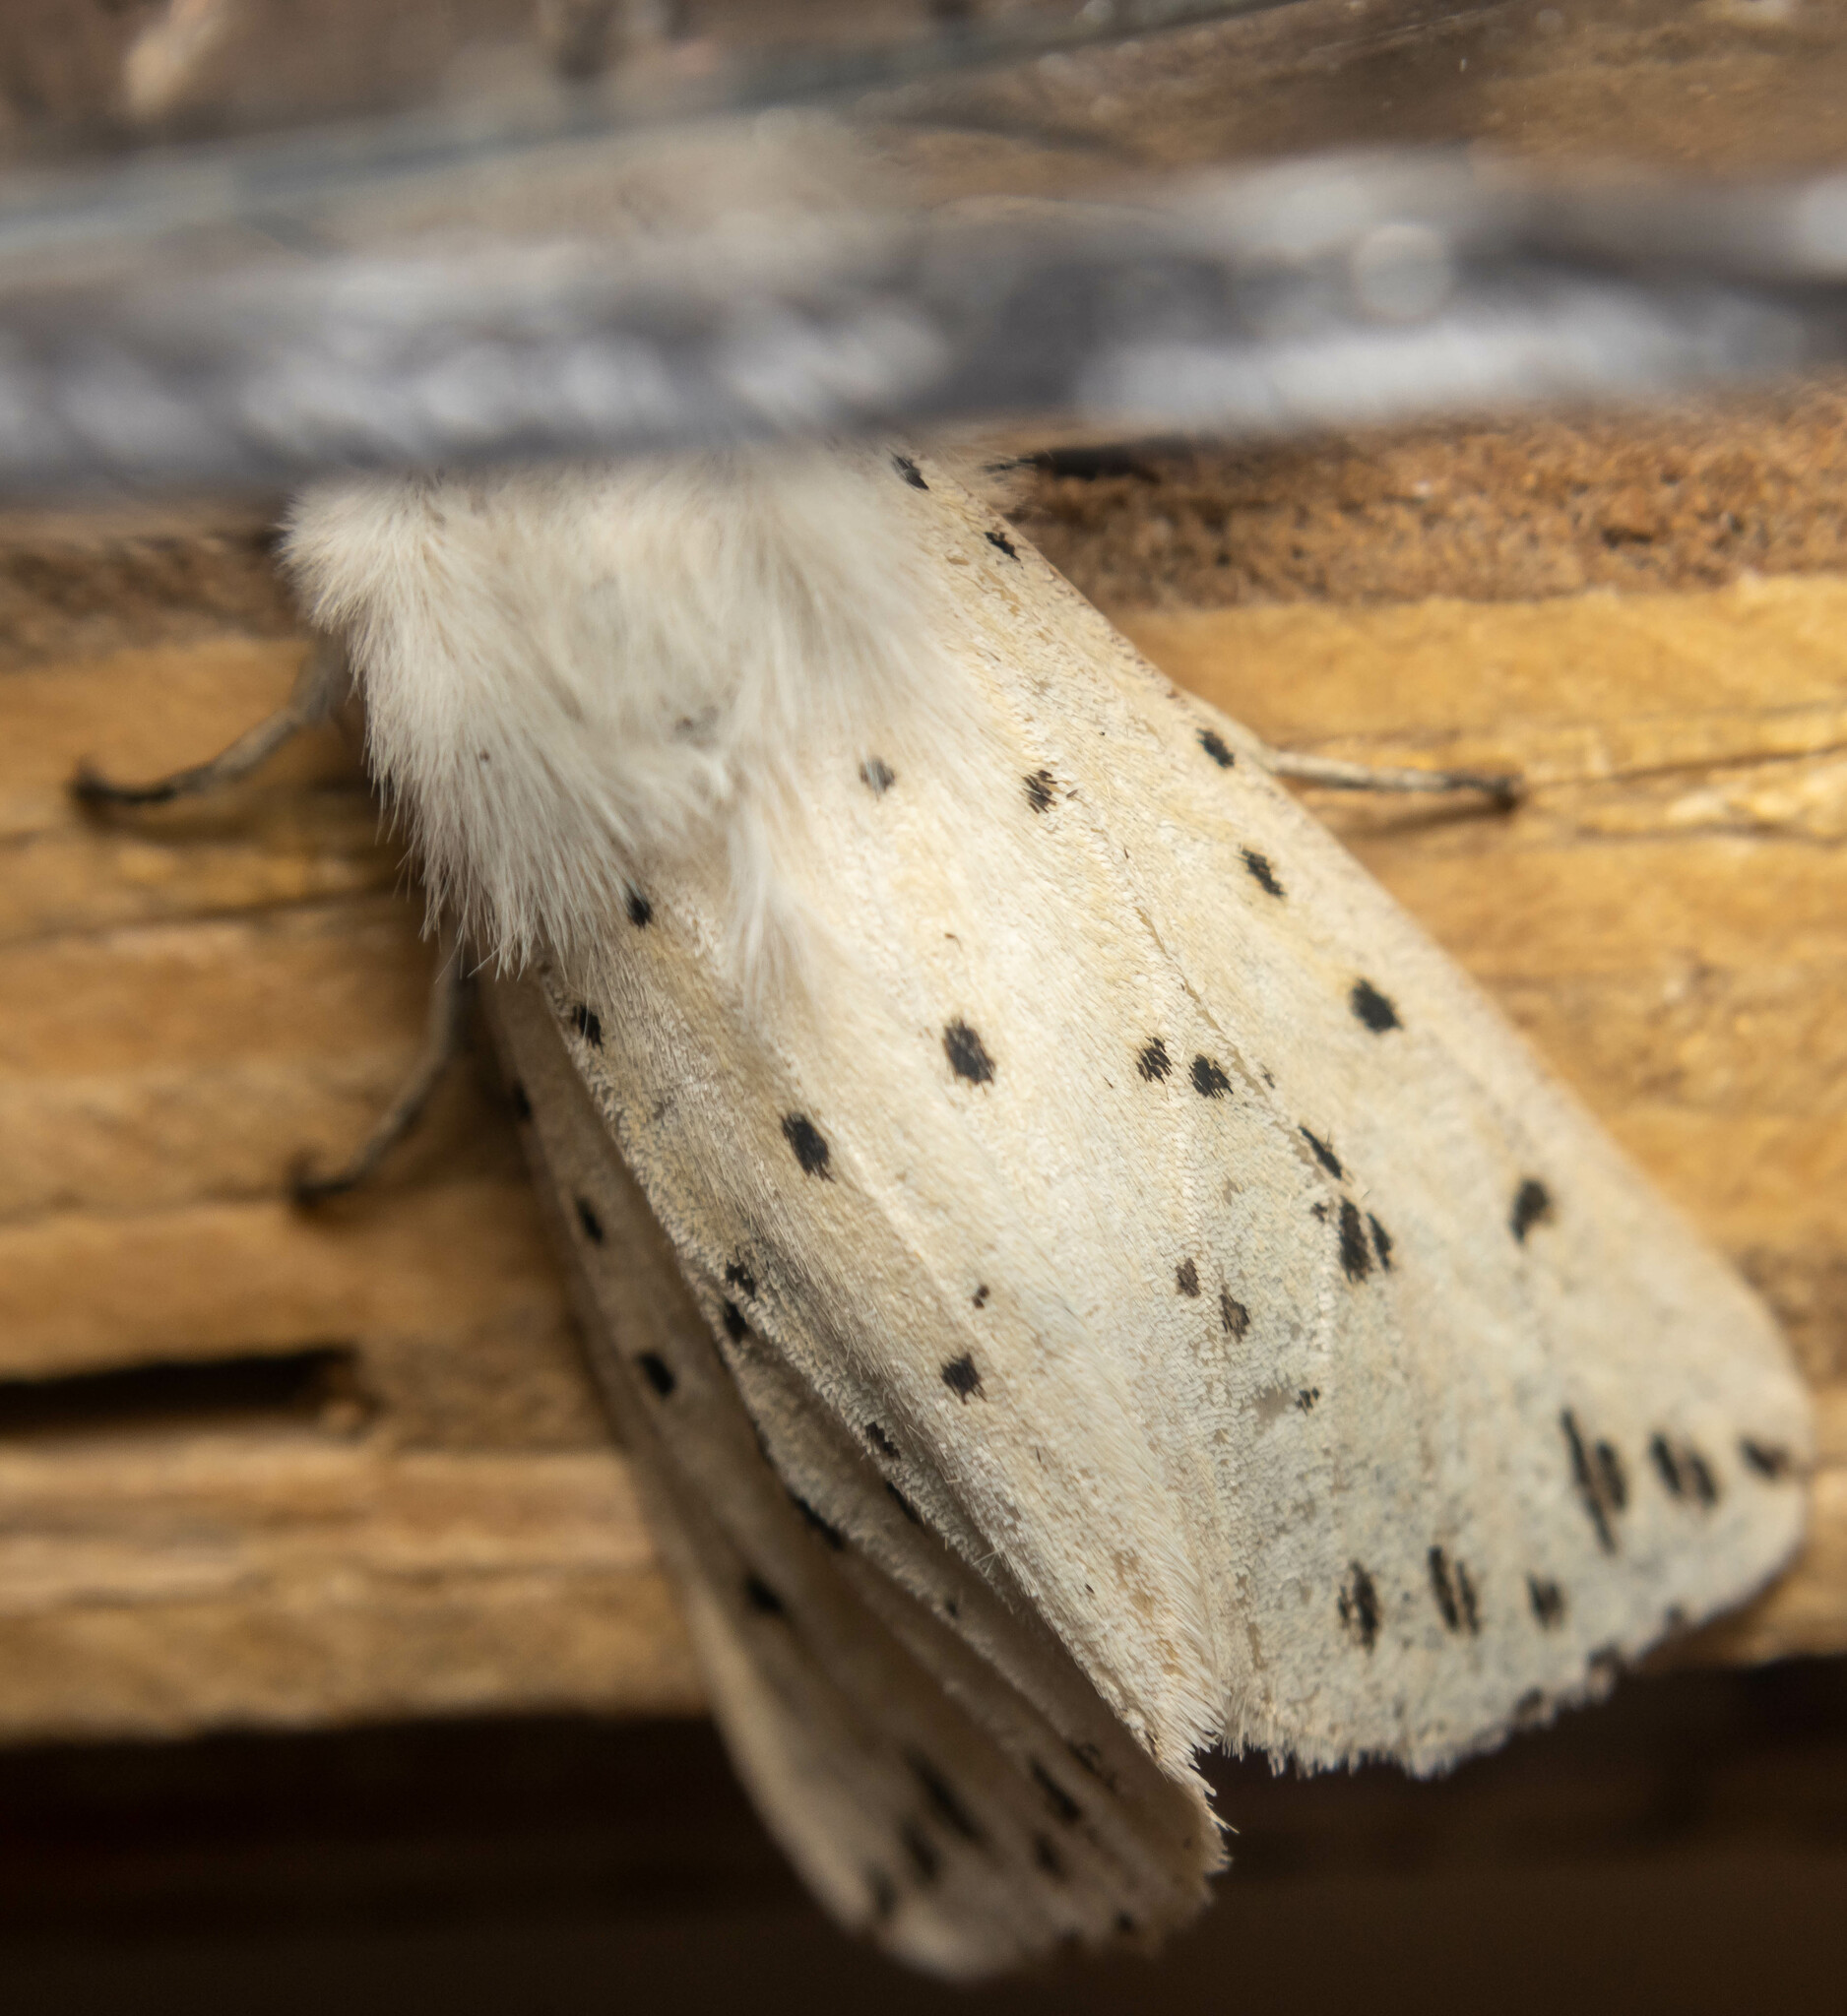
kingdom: Animalia
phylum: Arthropoda
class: Insecta
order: Lepidoptera
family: Erebidae
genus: Spilosoma
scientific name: Spilosoma lubricipeda
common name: White ermine
